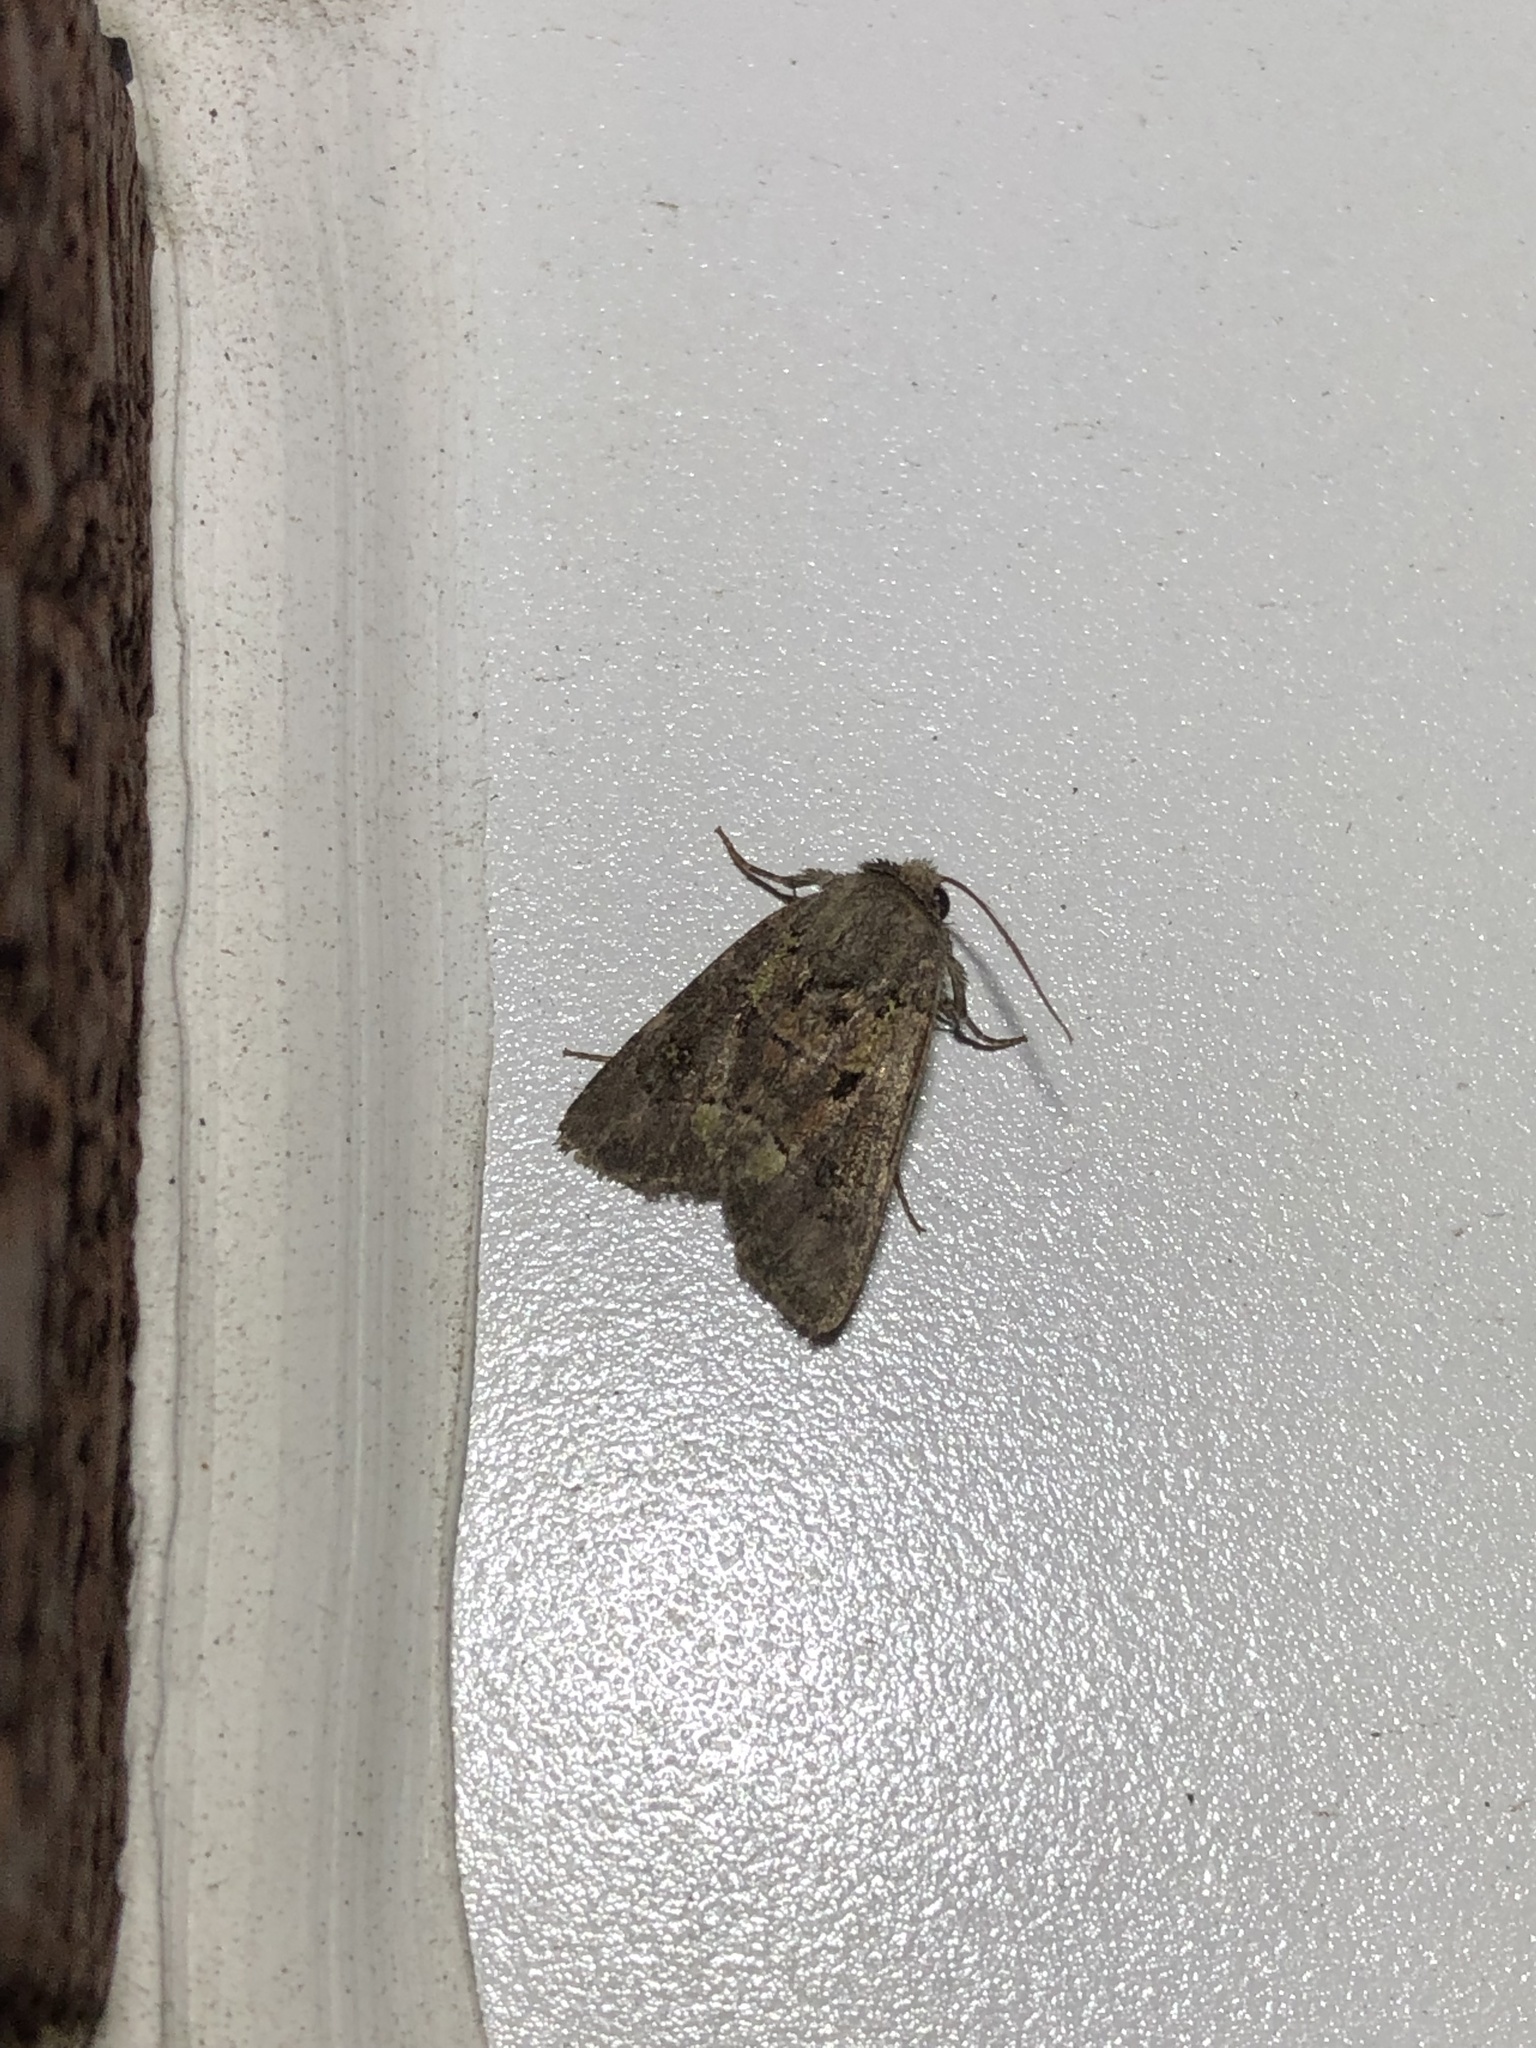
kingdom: Animalia
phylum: Arthropoda
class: Insecta
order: Lepidoptera
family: Noctuidae
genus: Lacinipolia
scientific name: Lacinipolia renigera
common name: Kidney-spotted minor
